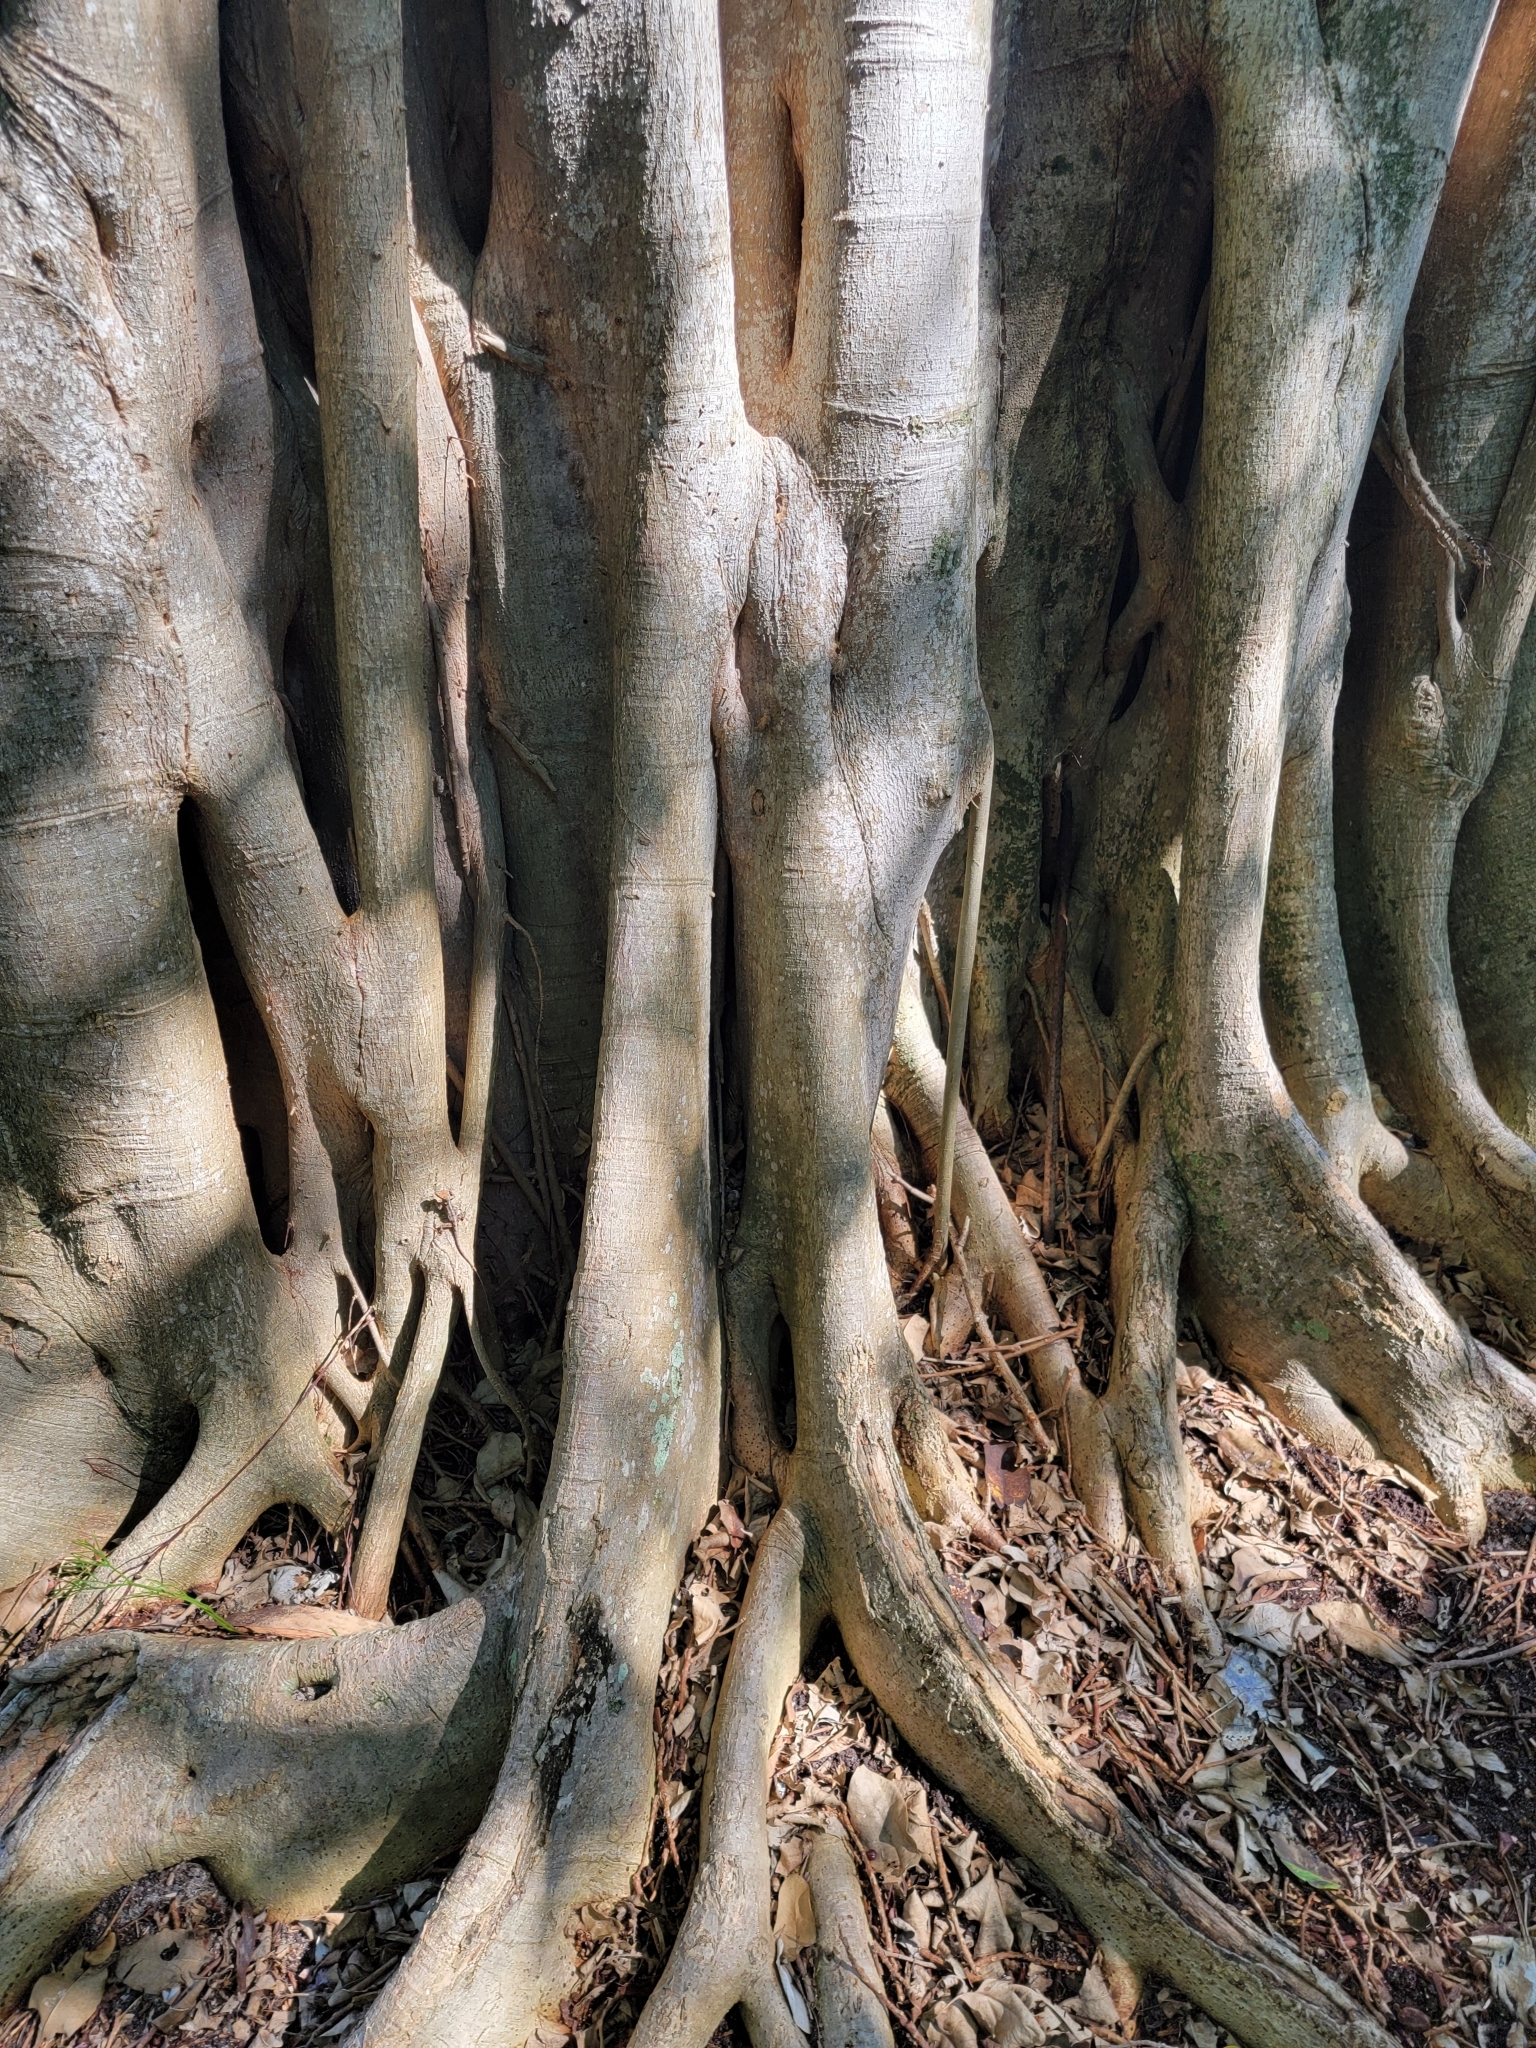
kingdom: Plantae
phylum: Tracheophyta
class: Magnoliopsida
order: Rosales
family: Moraceae
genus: Ficus
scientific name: Ficus aurea
